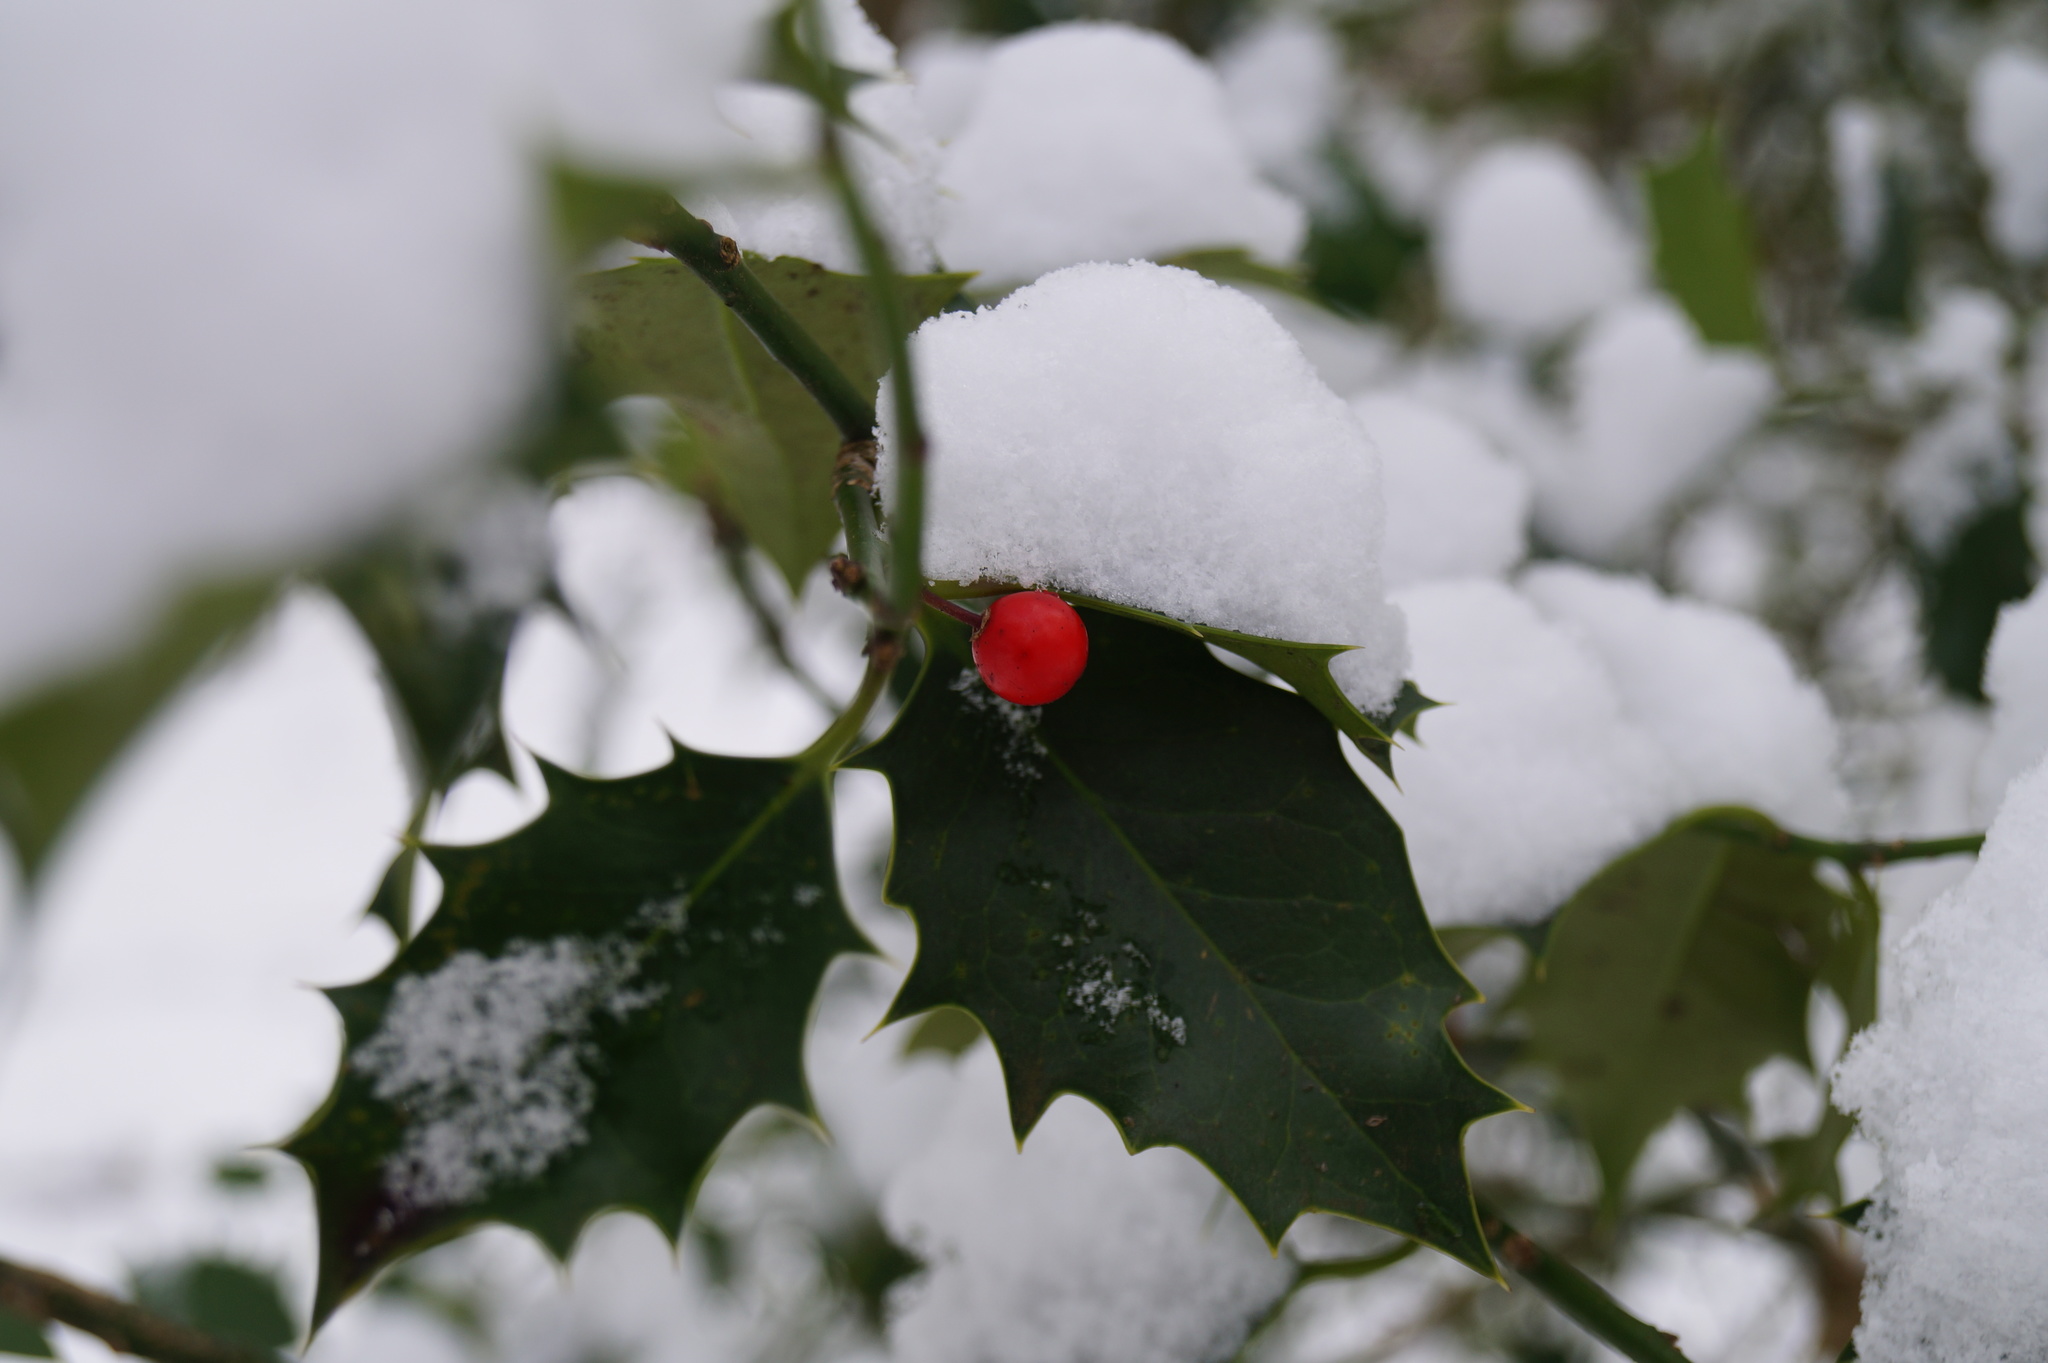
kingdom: Plantae
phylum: Tracheophyta
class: Magnoliopsida
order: Aquifoliales
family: Aquifoliaceae
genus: Ilex
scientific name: Ilex aquifolium
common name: English holly
